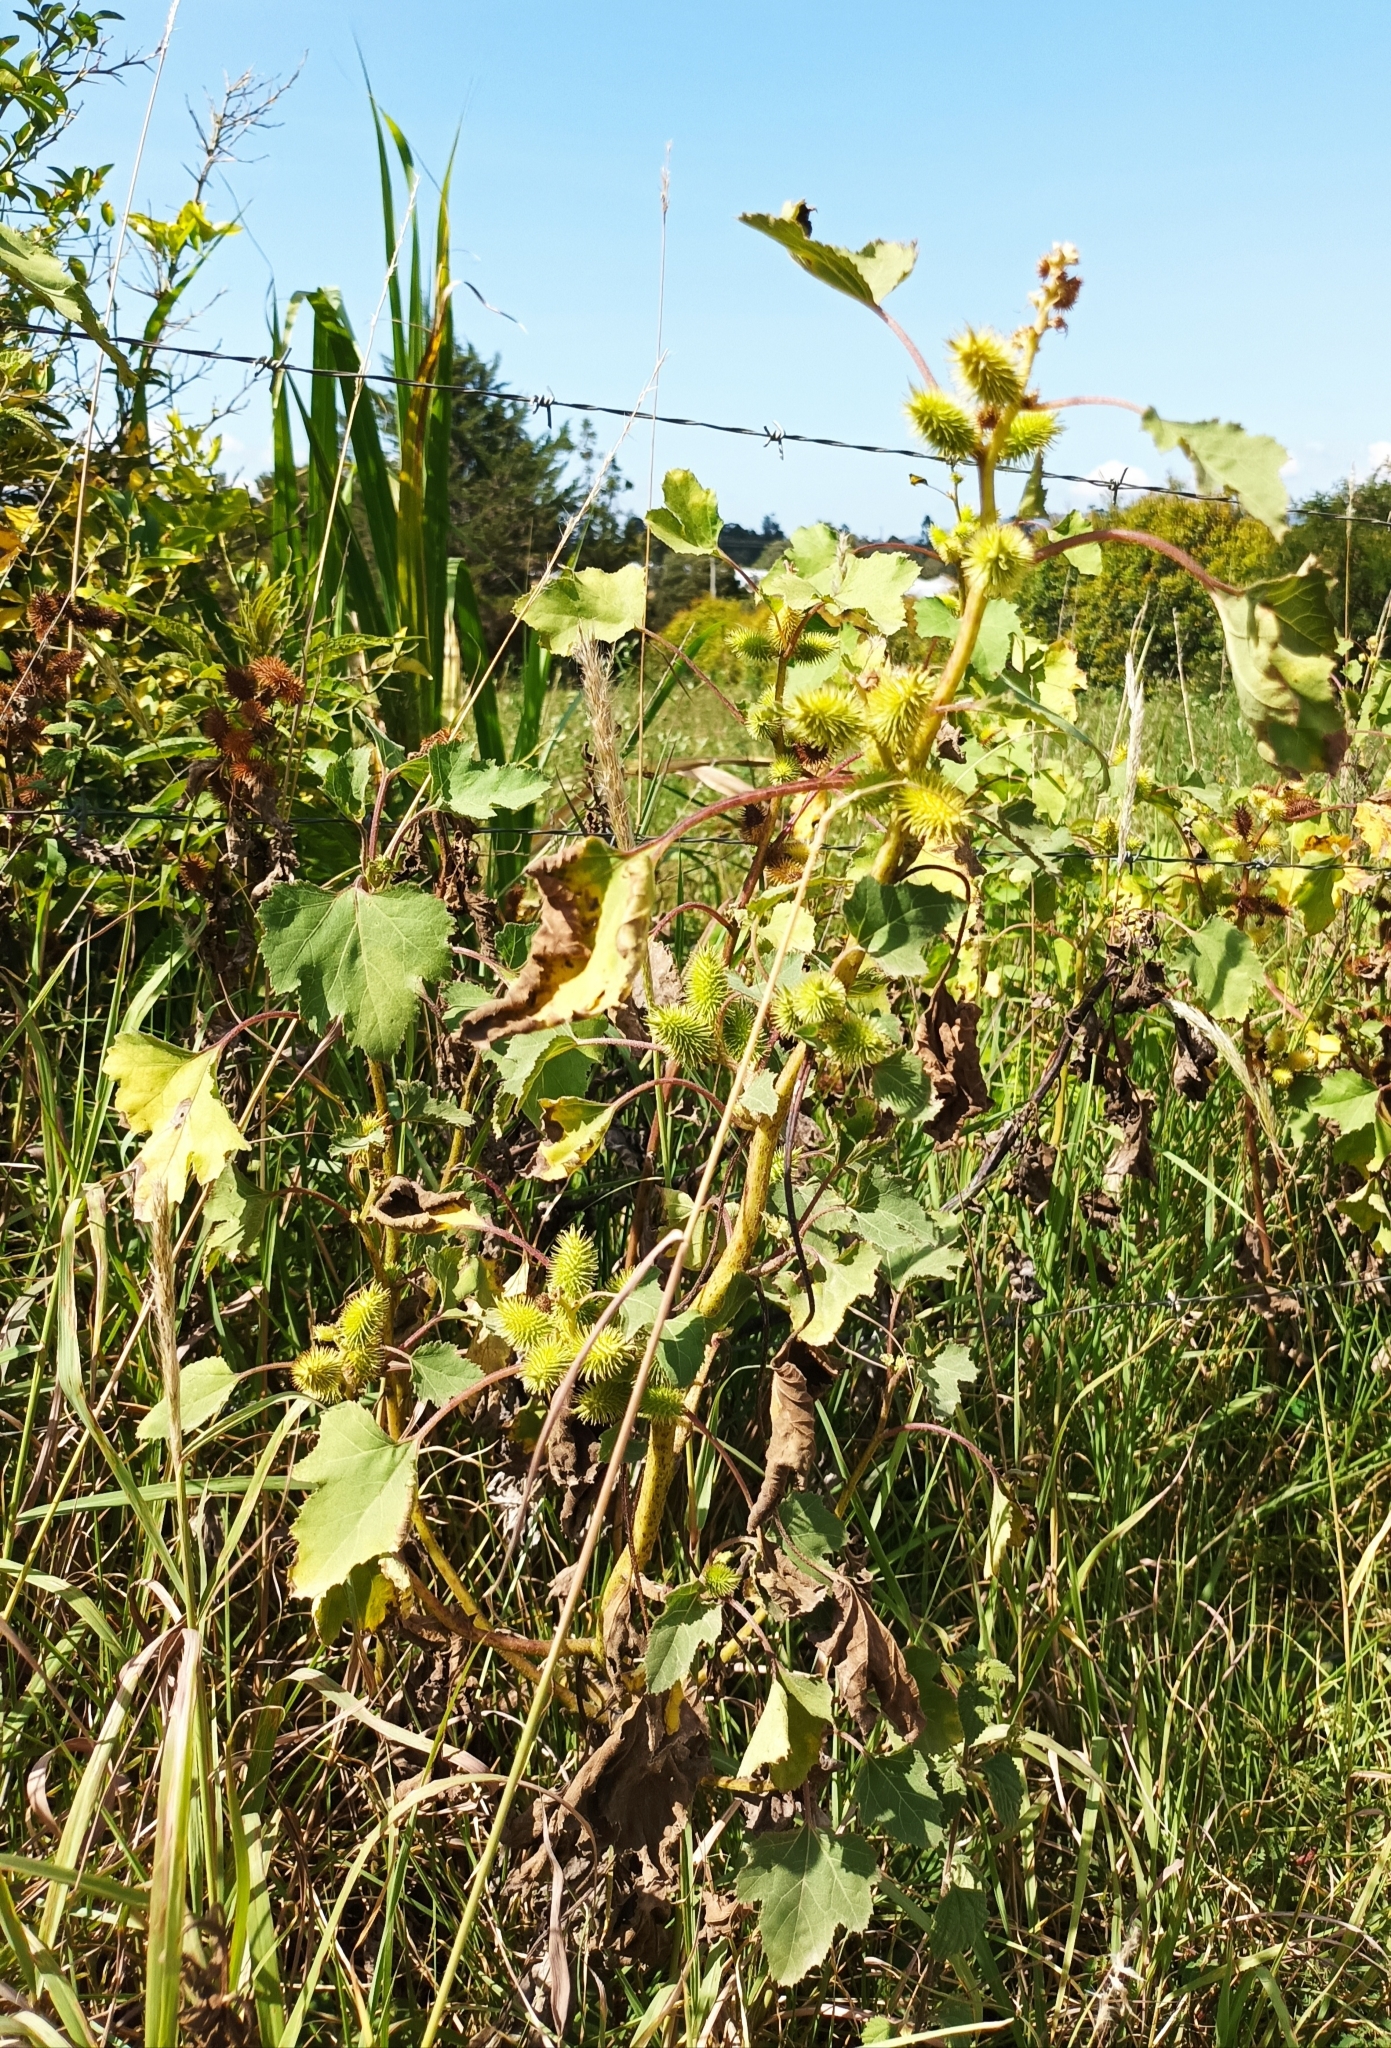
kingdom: Plantae
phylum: Tracheophyta
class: Magnoliopsida
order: Asterales
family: Asteraceae
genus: Xanthium
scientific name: Xanthium strumarium
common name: Rough cocklebur
